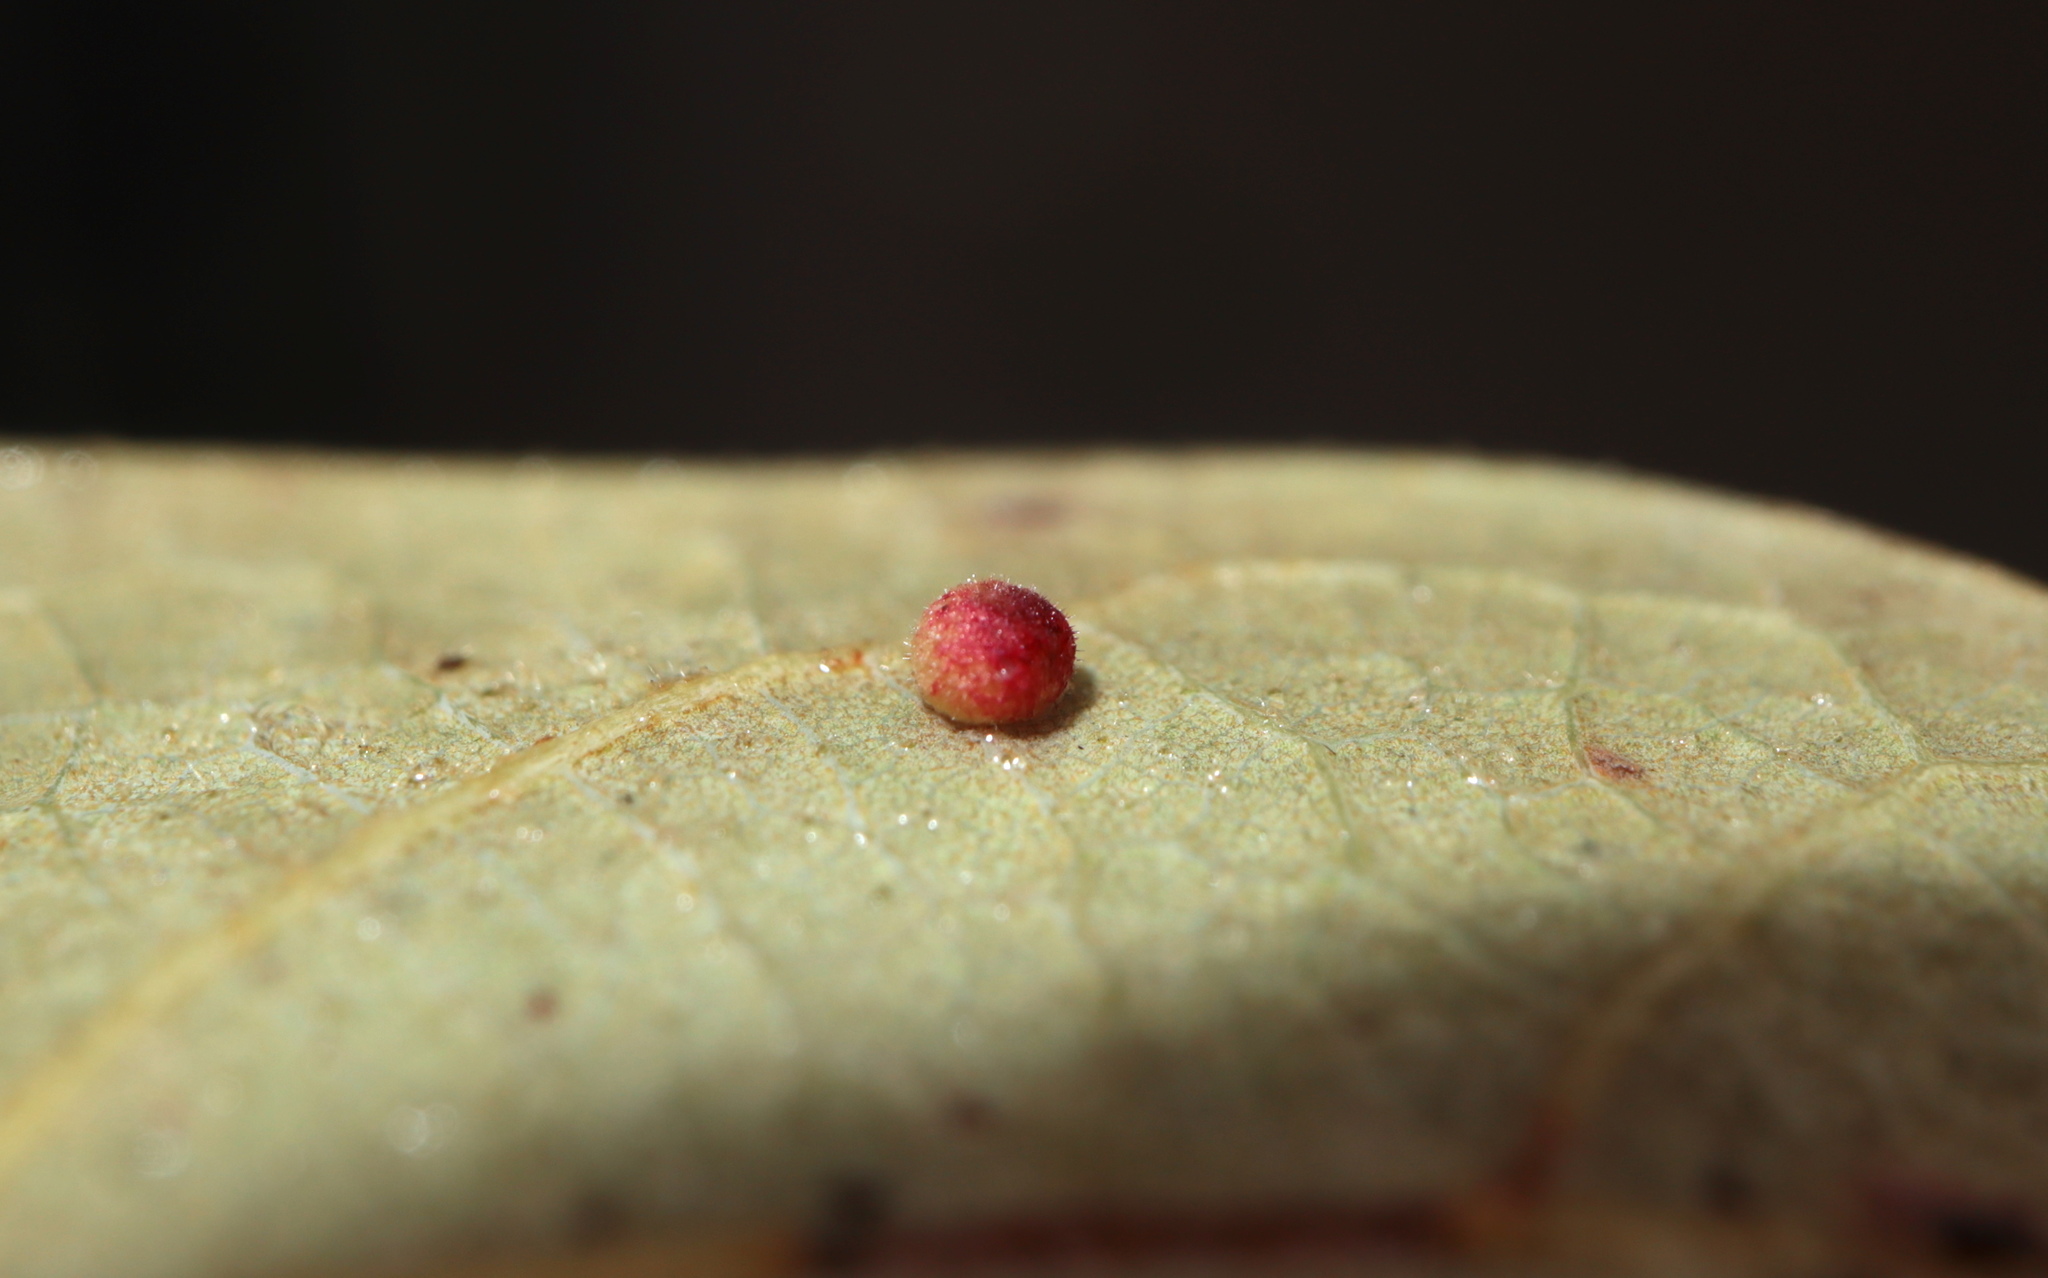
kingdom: Animalia
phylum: Arthropoda
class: Insecta
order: Hymenoptera
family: Cynipidae
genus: Neuroterus
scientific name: Neuroterus saltarius
